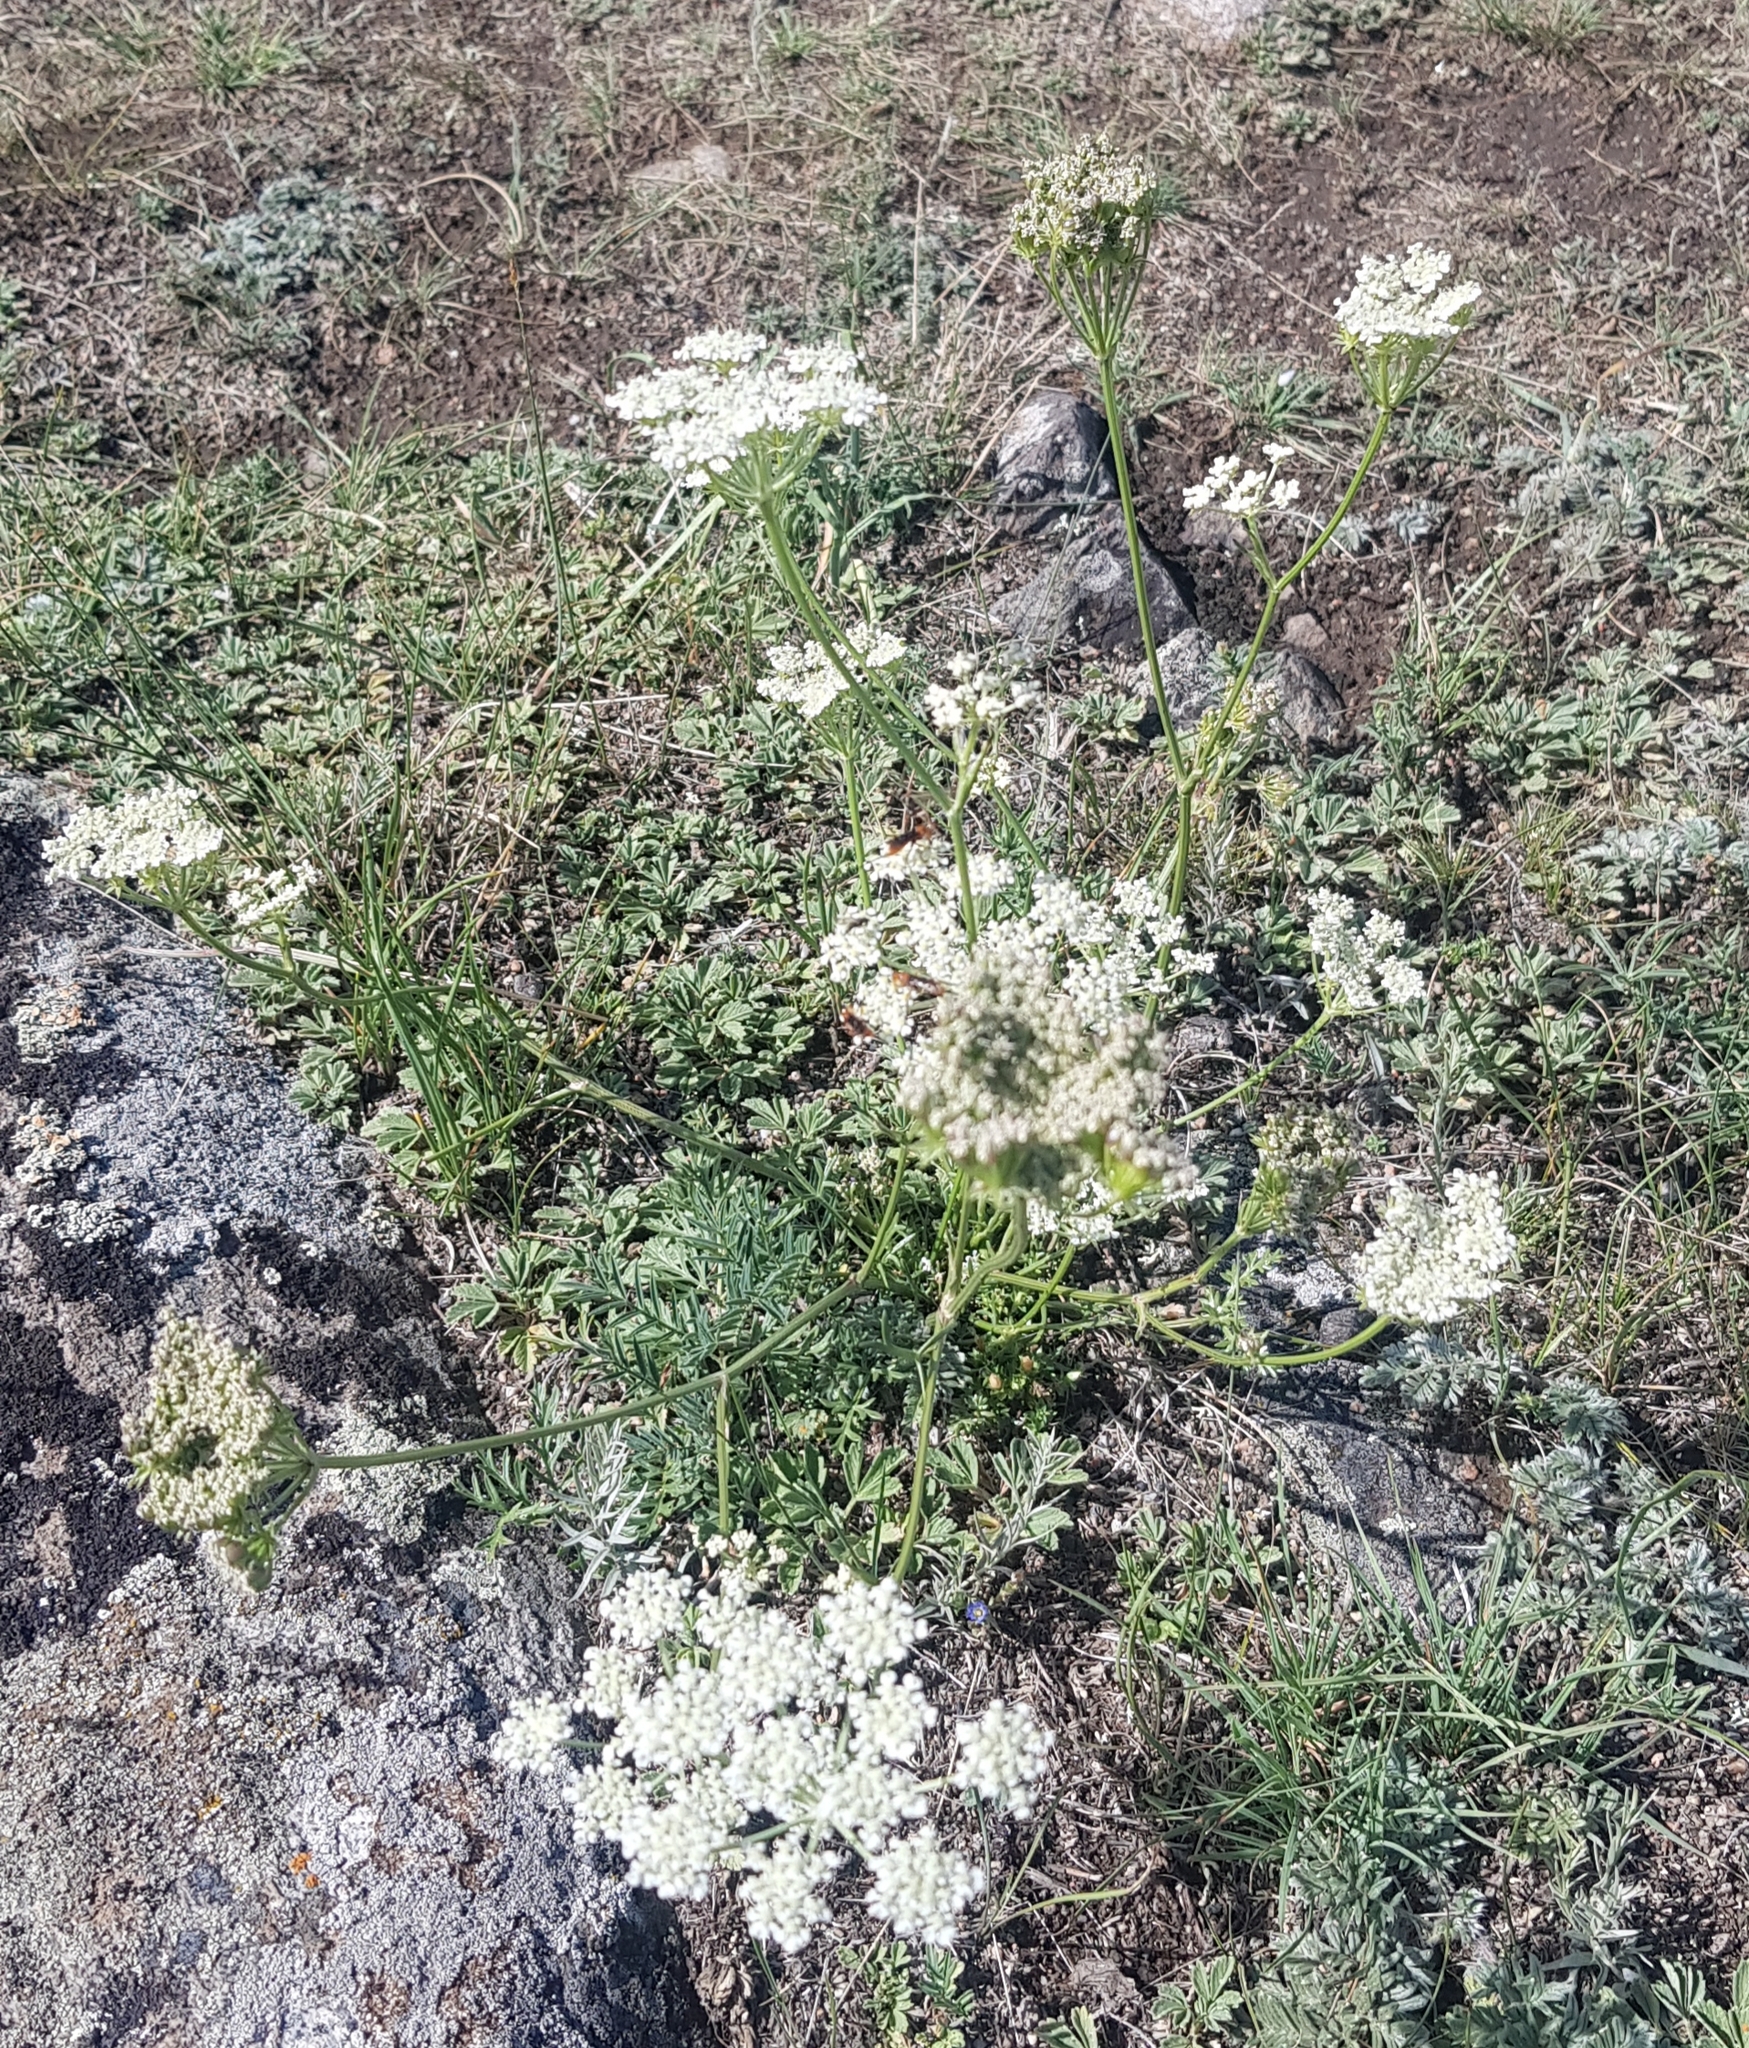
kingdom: Plantae
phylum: Tracheophyta
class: Magnoliopsida
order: Apiales
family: Apiaceae
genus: Kitagawia
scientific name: Kitagawia baicalensis
